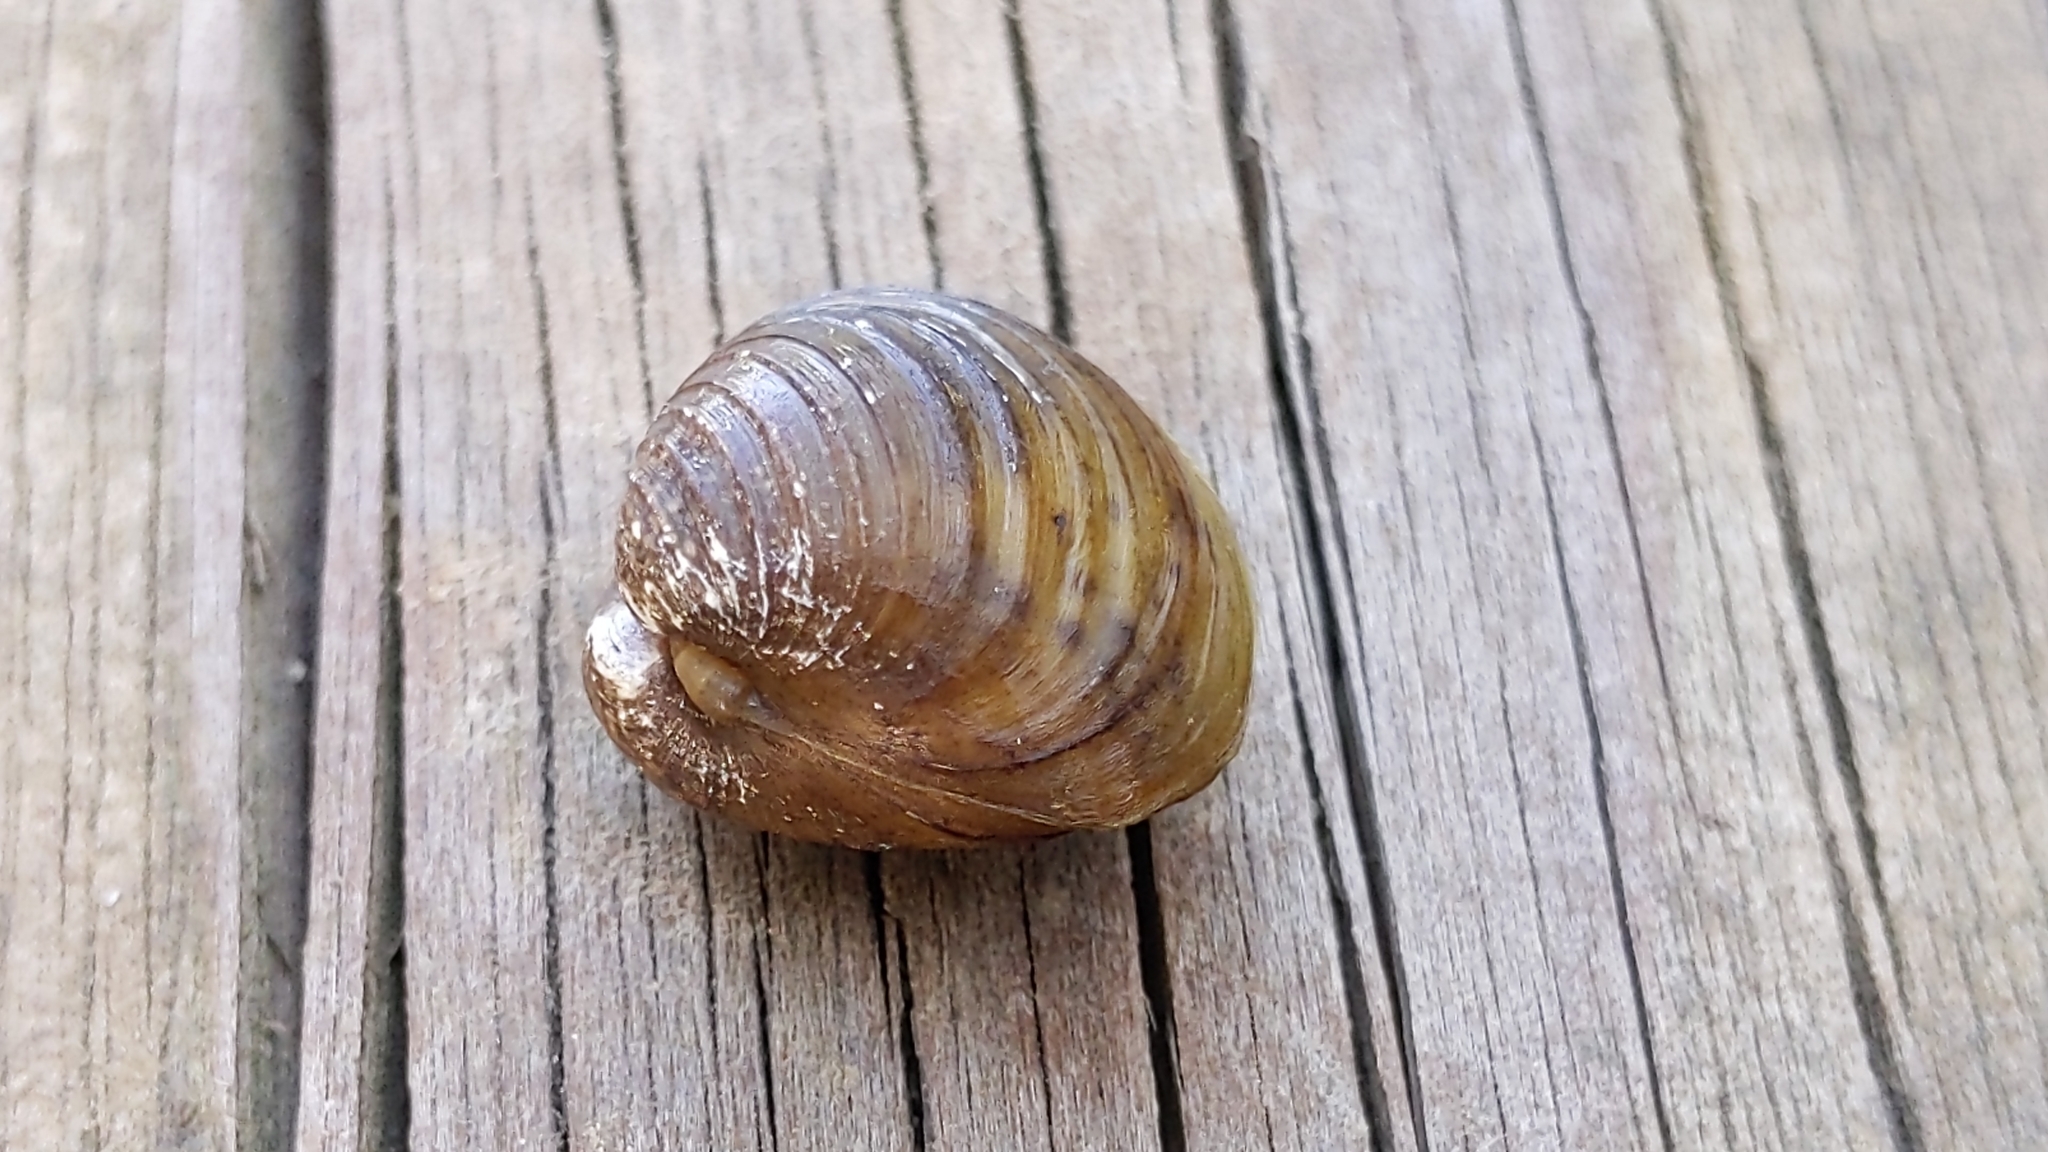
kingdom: Animalia
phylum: Mollusca
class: Bivalvia
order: Venerida
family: Cyrenidae
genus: Corbicula
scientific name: Corbicula fluminea
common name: Asian clam
